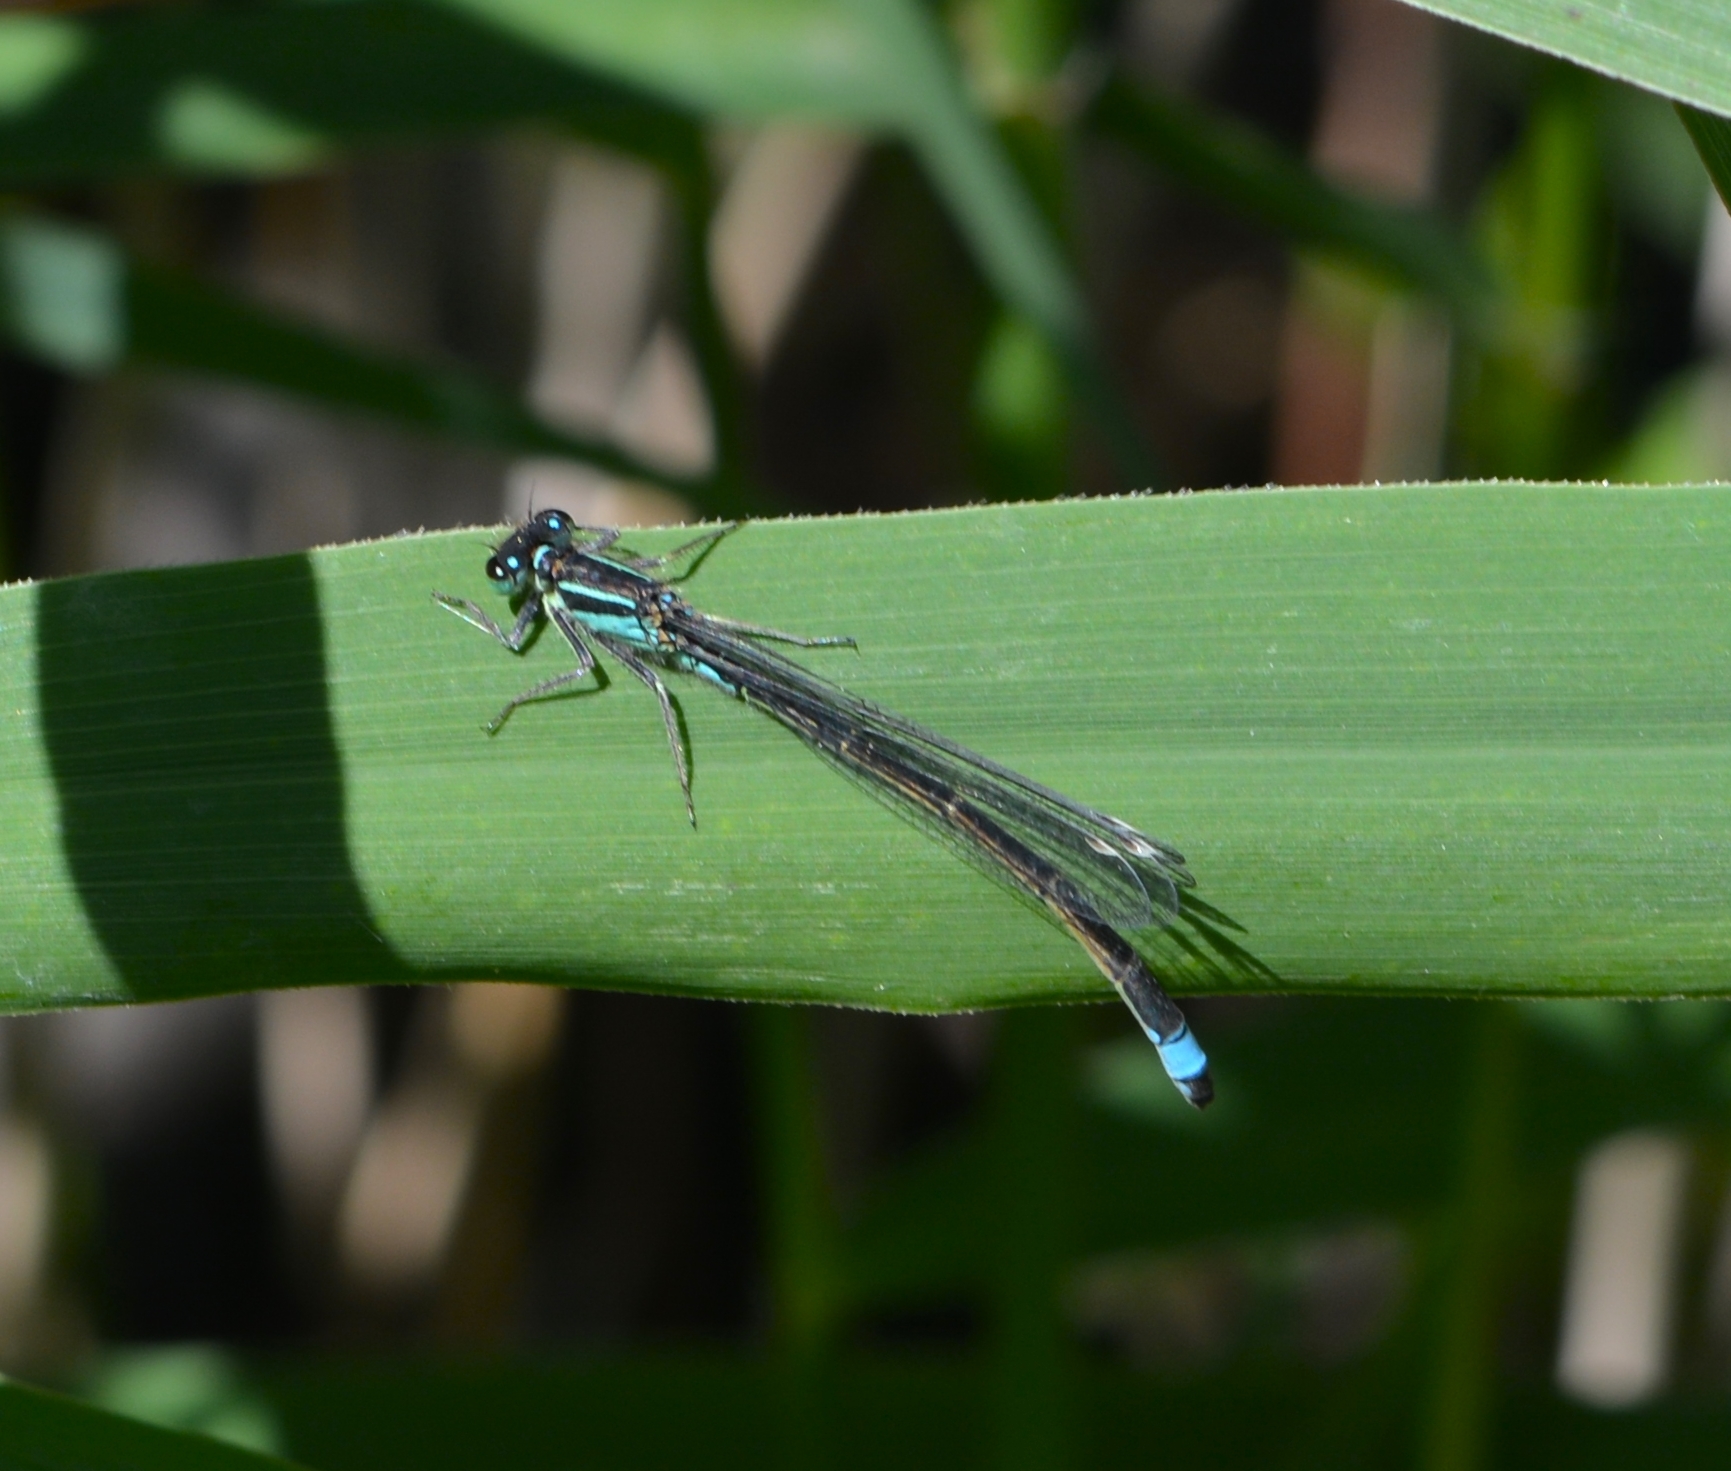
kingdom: Animalia
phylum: Arthropoda
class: Insecta
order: Odonata
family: Coenagrionidae
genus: Ischnura
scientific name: Ischnura elegans
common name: Blue-tailed damselfly
